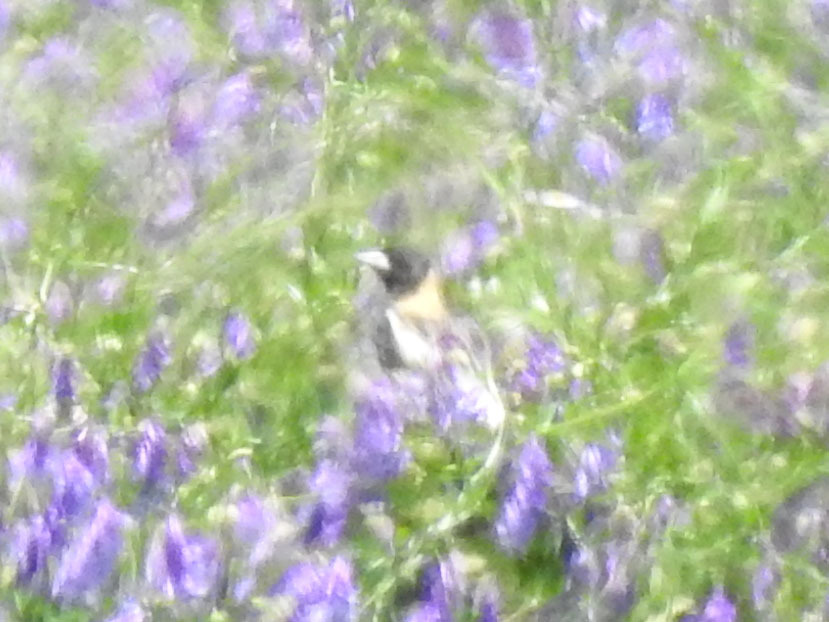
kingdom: Animalia
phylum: Chordata
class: Aves
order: Passeriformes
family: Icteridae
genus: Dolichonyx
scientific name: Dolichonyx oryzivorus
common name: Bobolink
